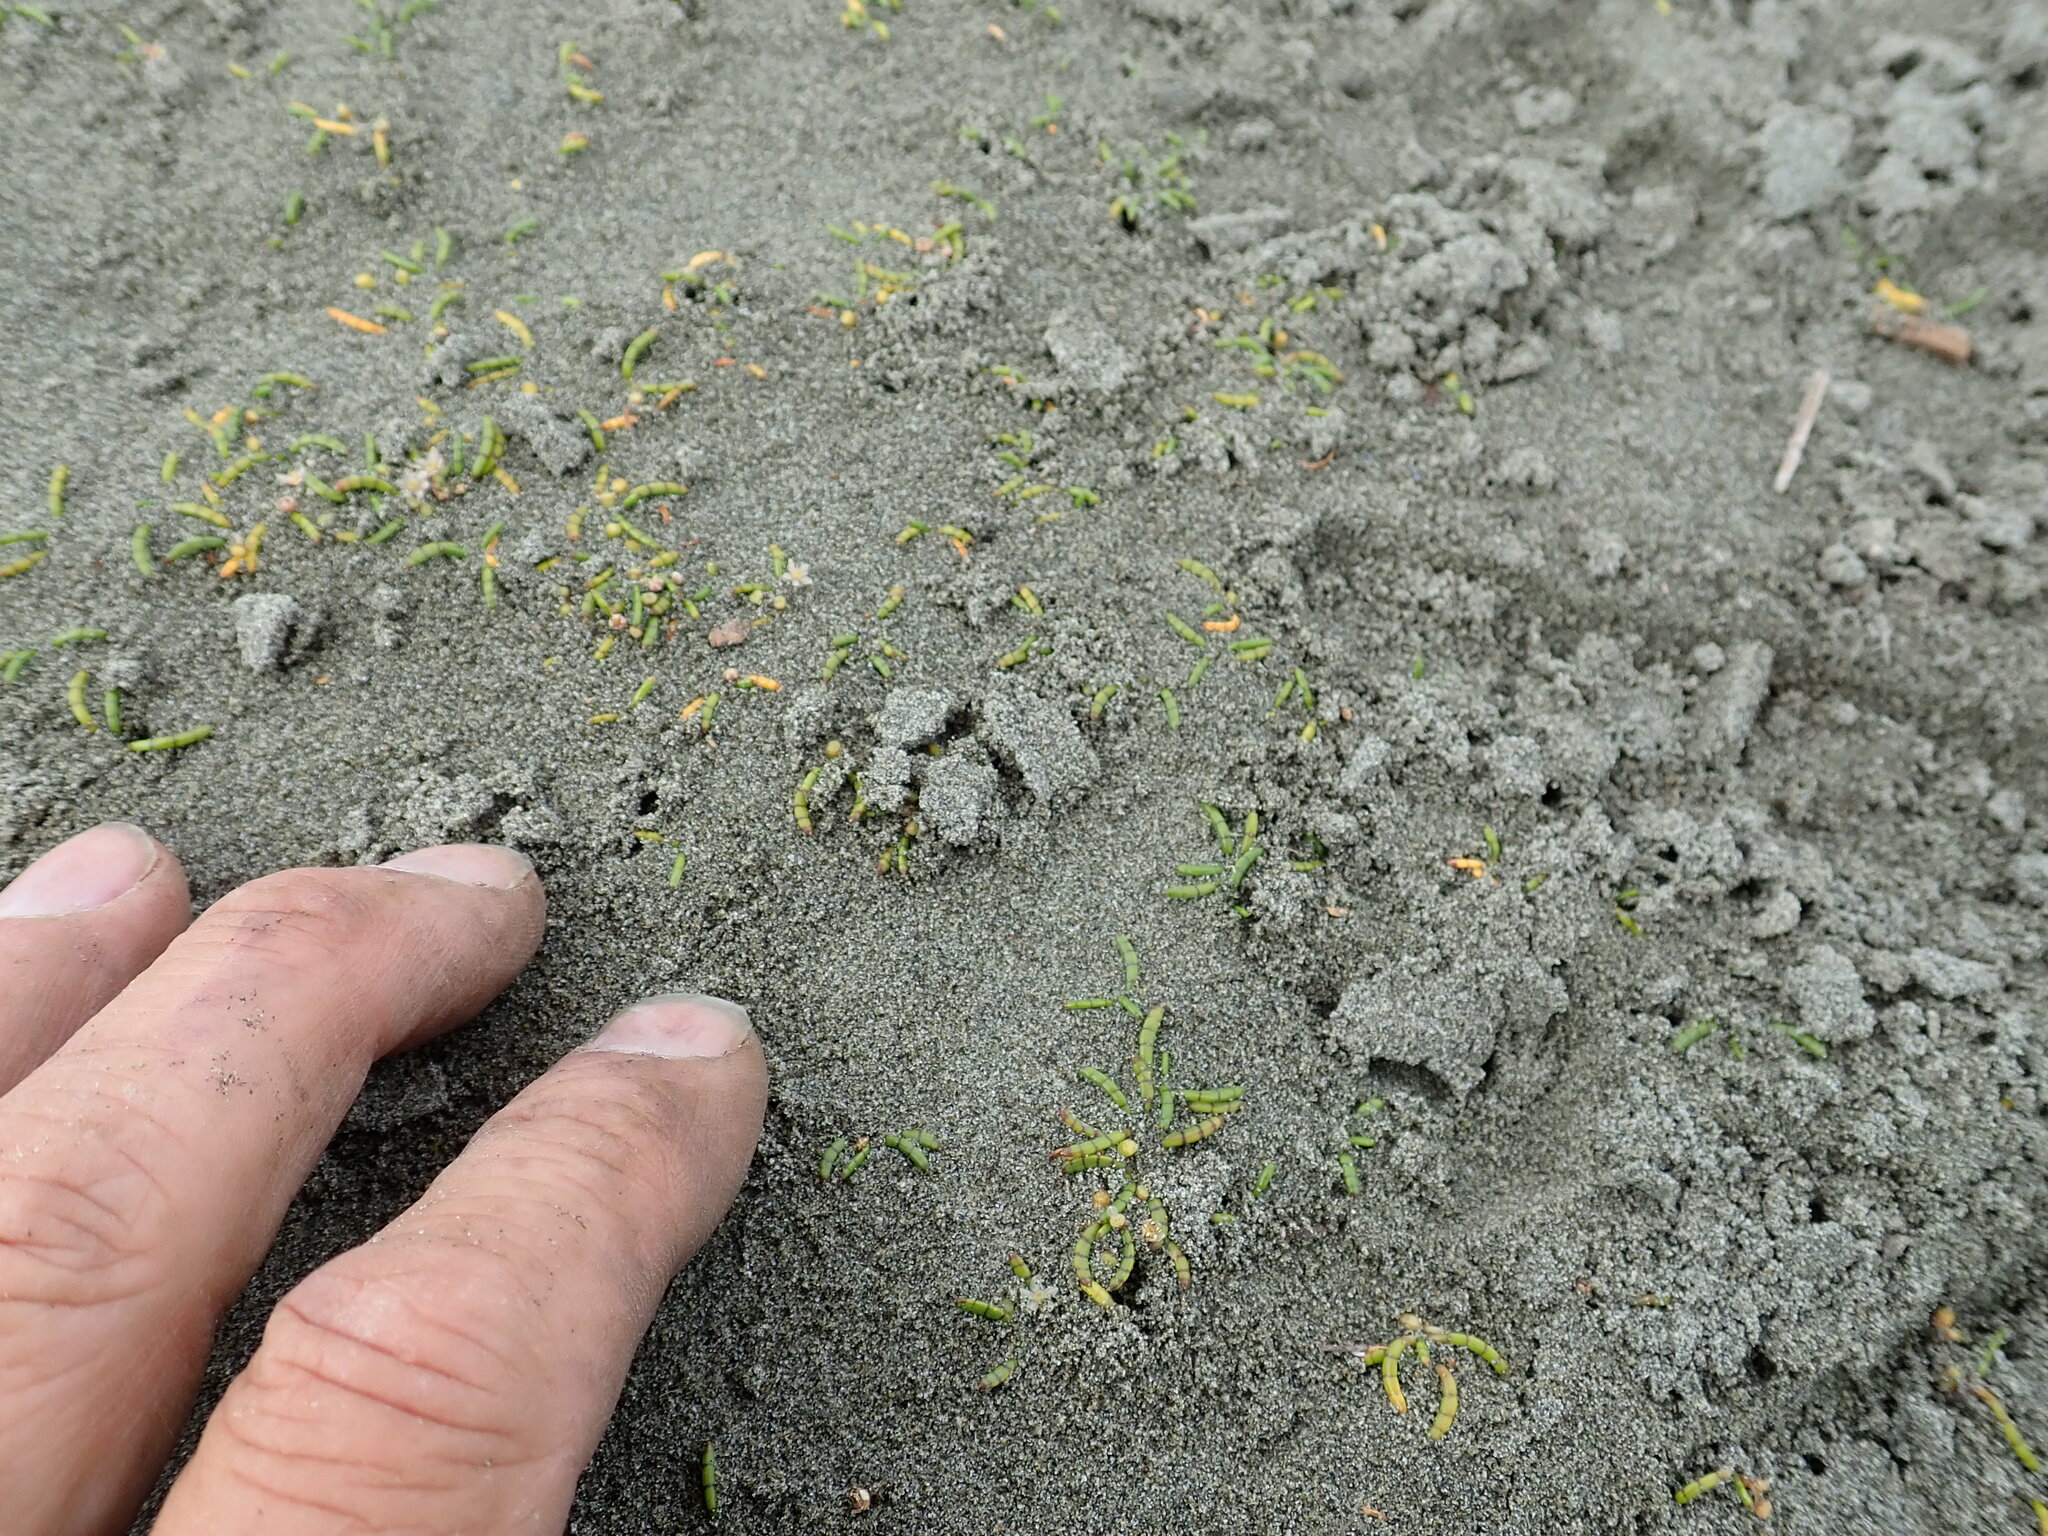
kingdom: Plantae
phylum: Tracheophyta
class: Magnoliopsida
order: Apiales
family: Apiaceae
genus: Lilaeopsis
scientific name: Lilaeopsis novae-zelandiae
